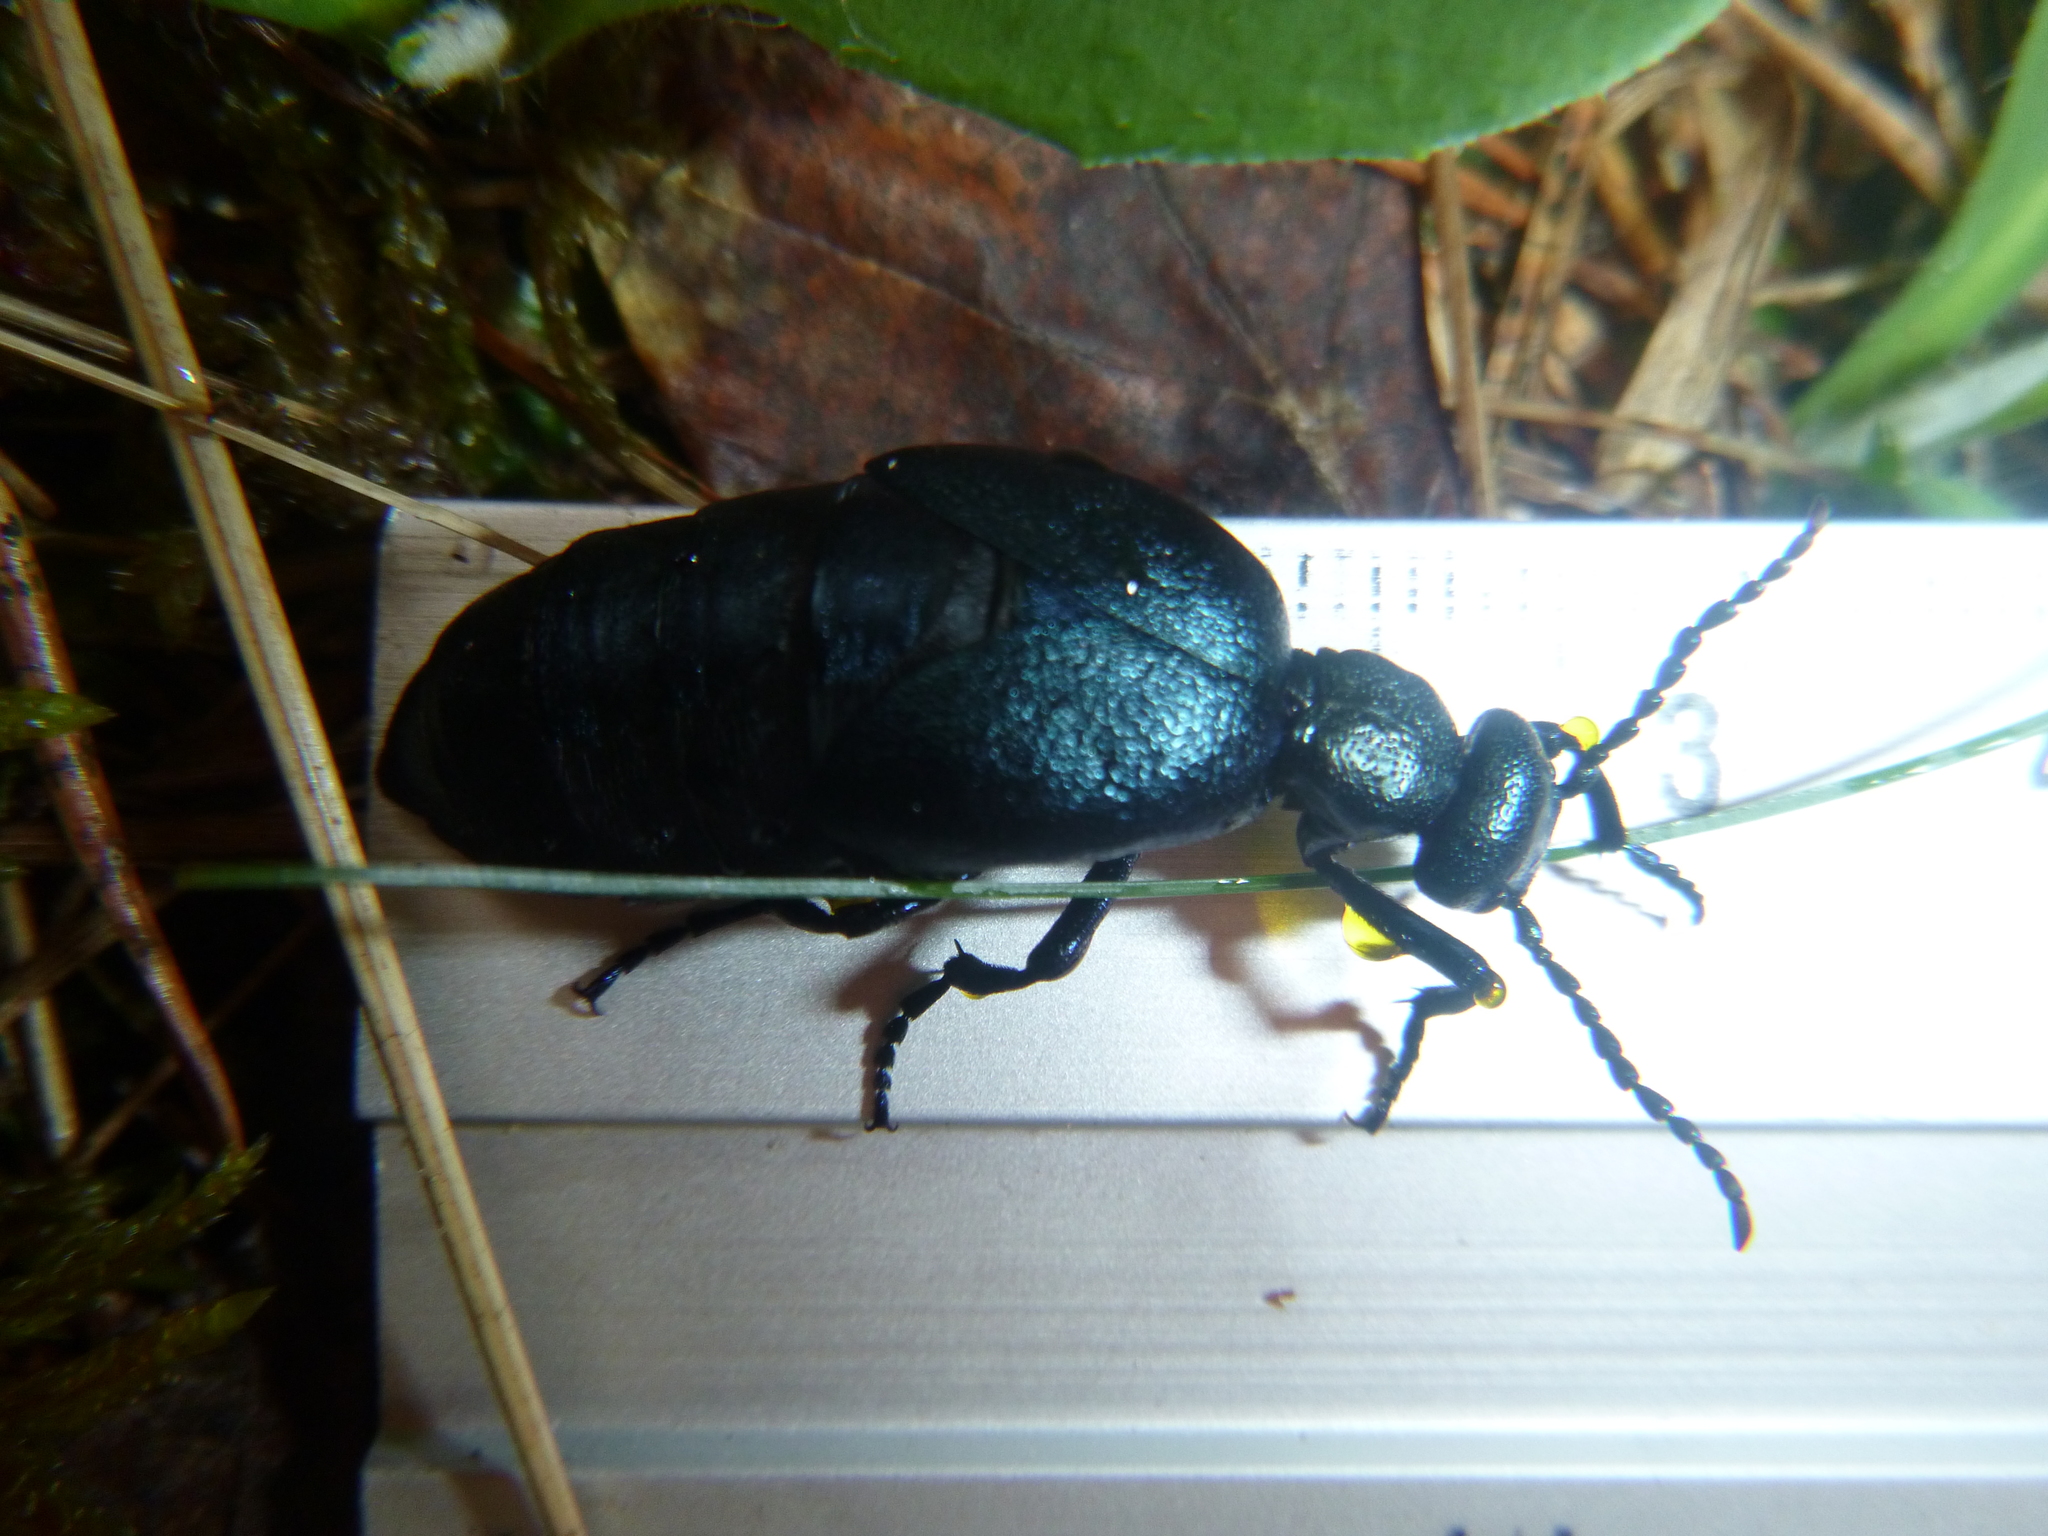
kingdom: Animalia
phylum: Arthropoda
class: Insecta
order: Coleoptera
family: Meloidae
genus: Meloe
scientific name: Meloe violaceus
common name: Violet oil-beetle
